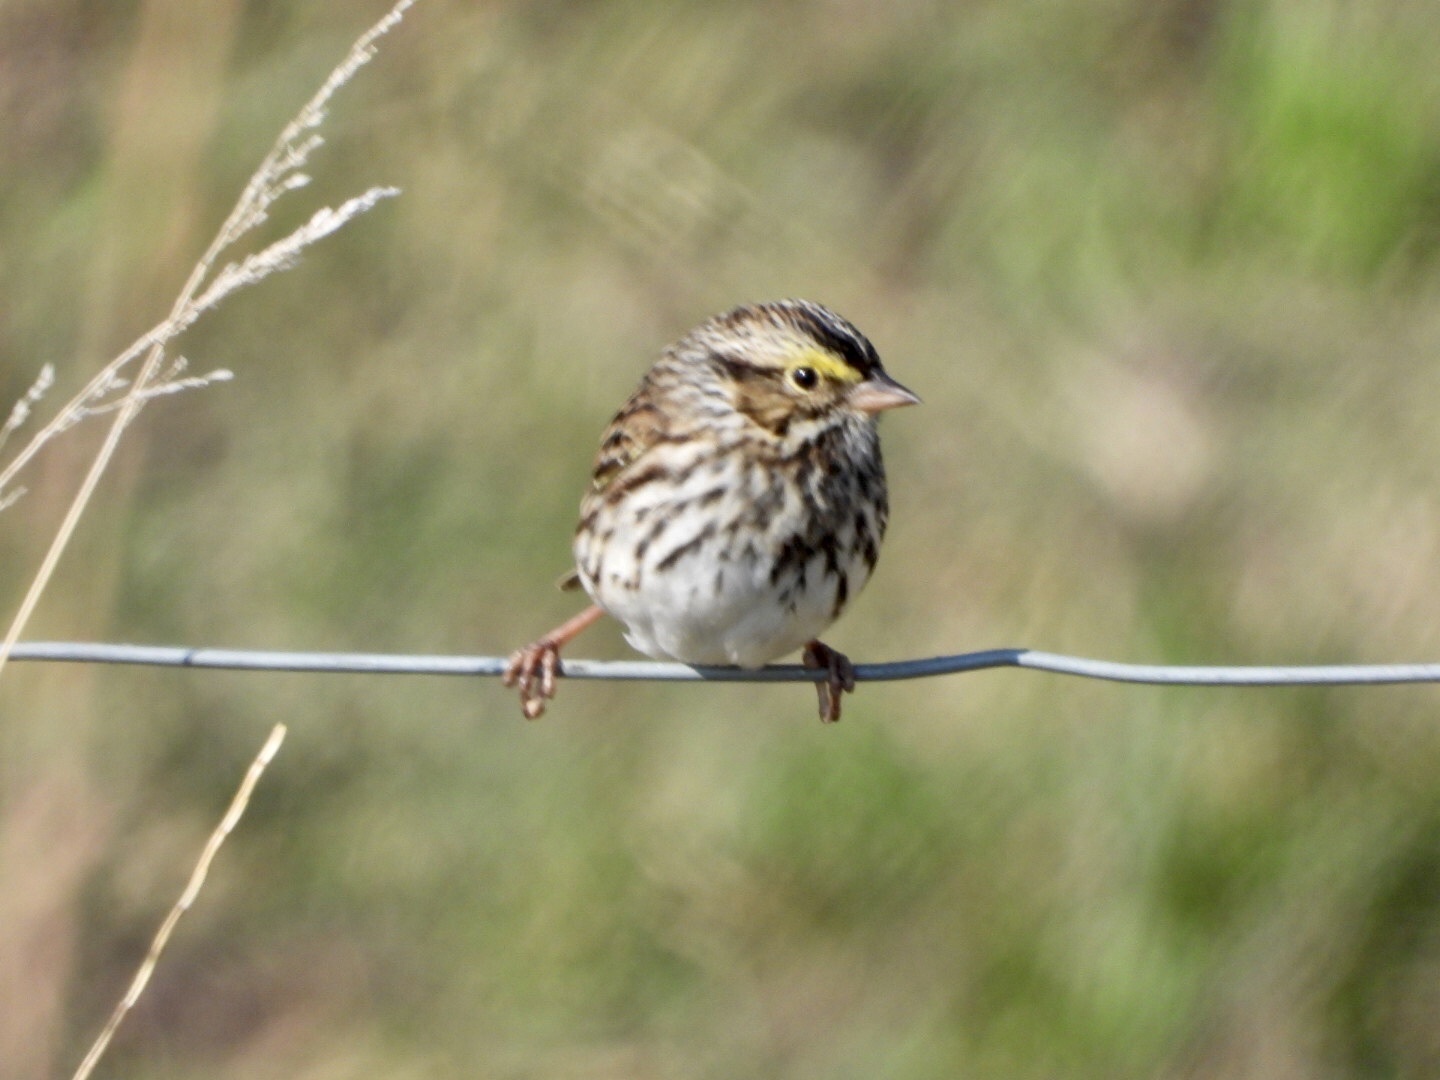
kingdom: Animalia
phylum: Chordata
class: Aves
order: Passeriformes
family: Passerellidae
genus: Passerculus
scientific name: Passerculus sandwichensis
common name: Savannah sparrow
